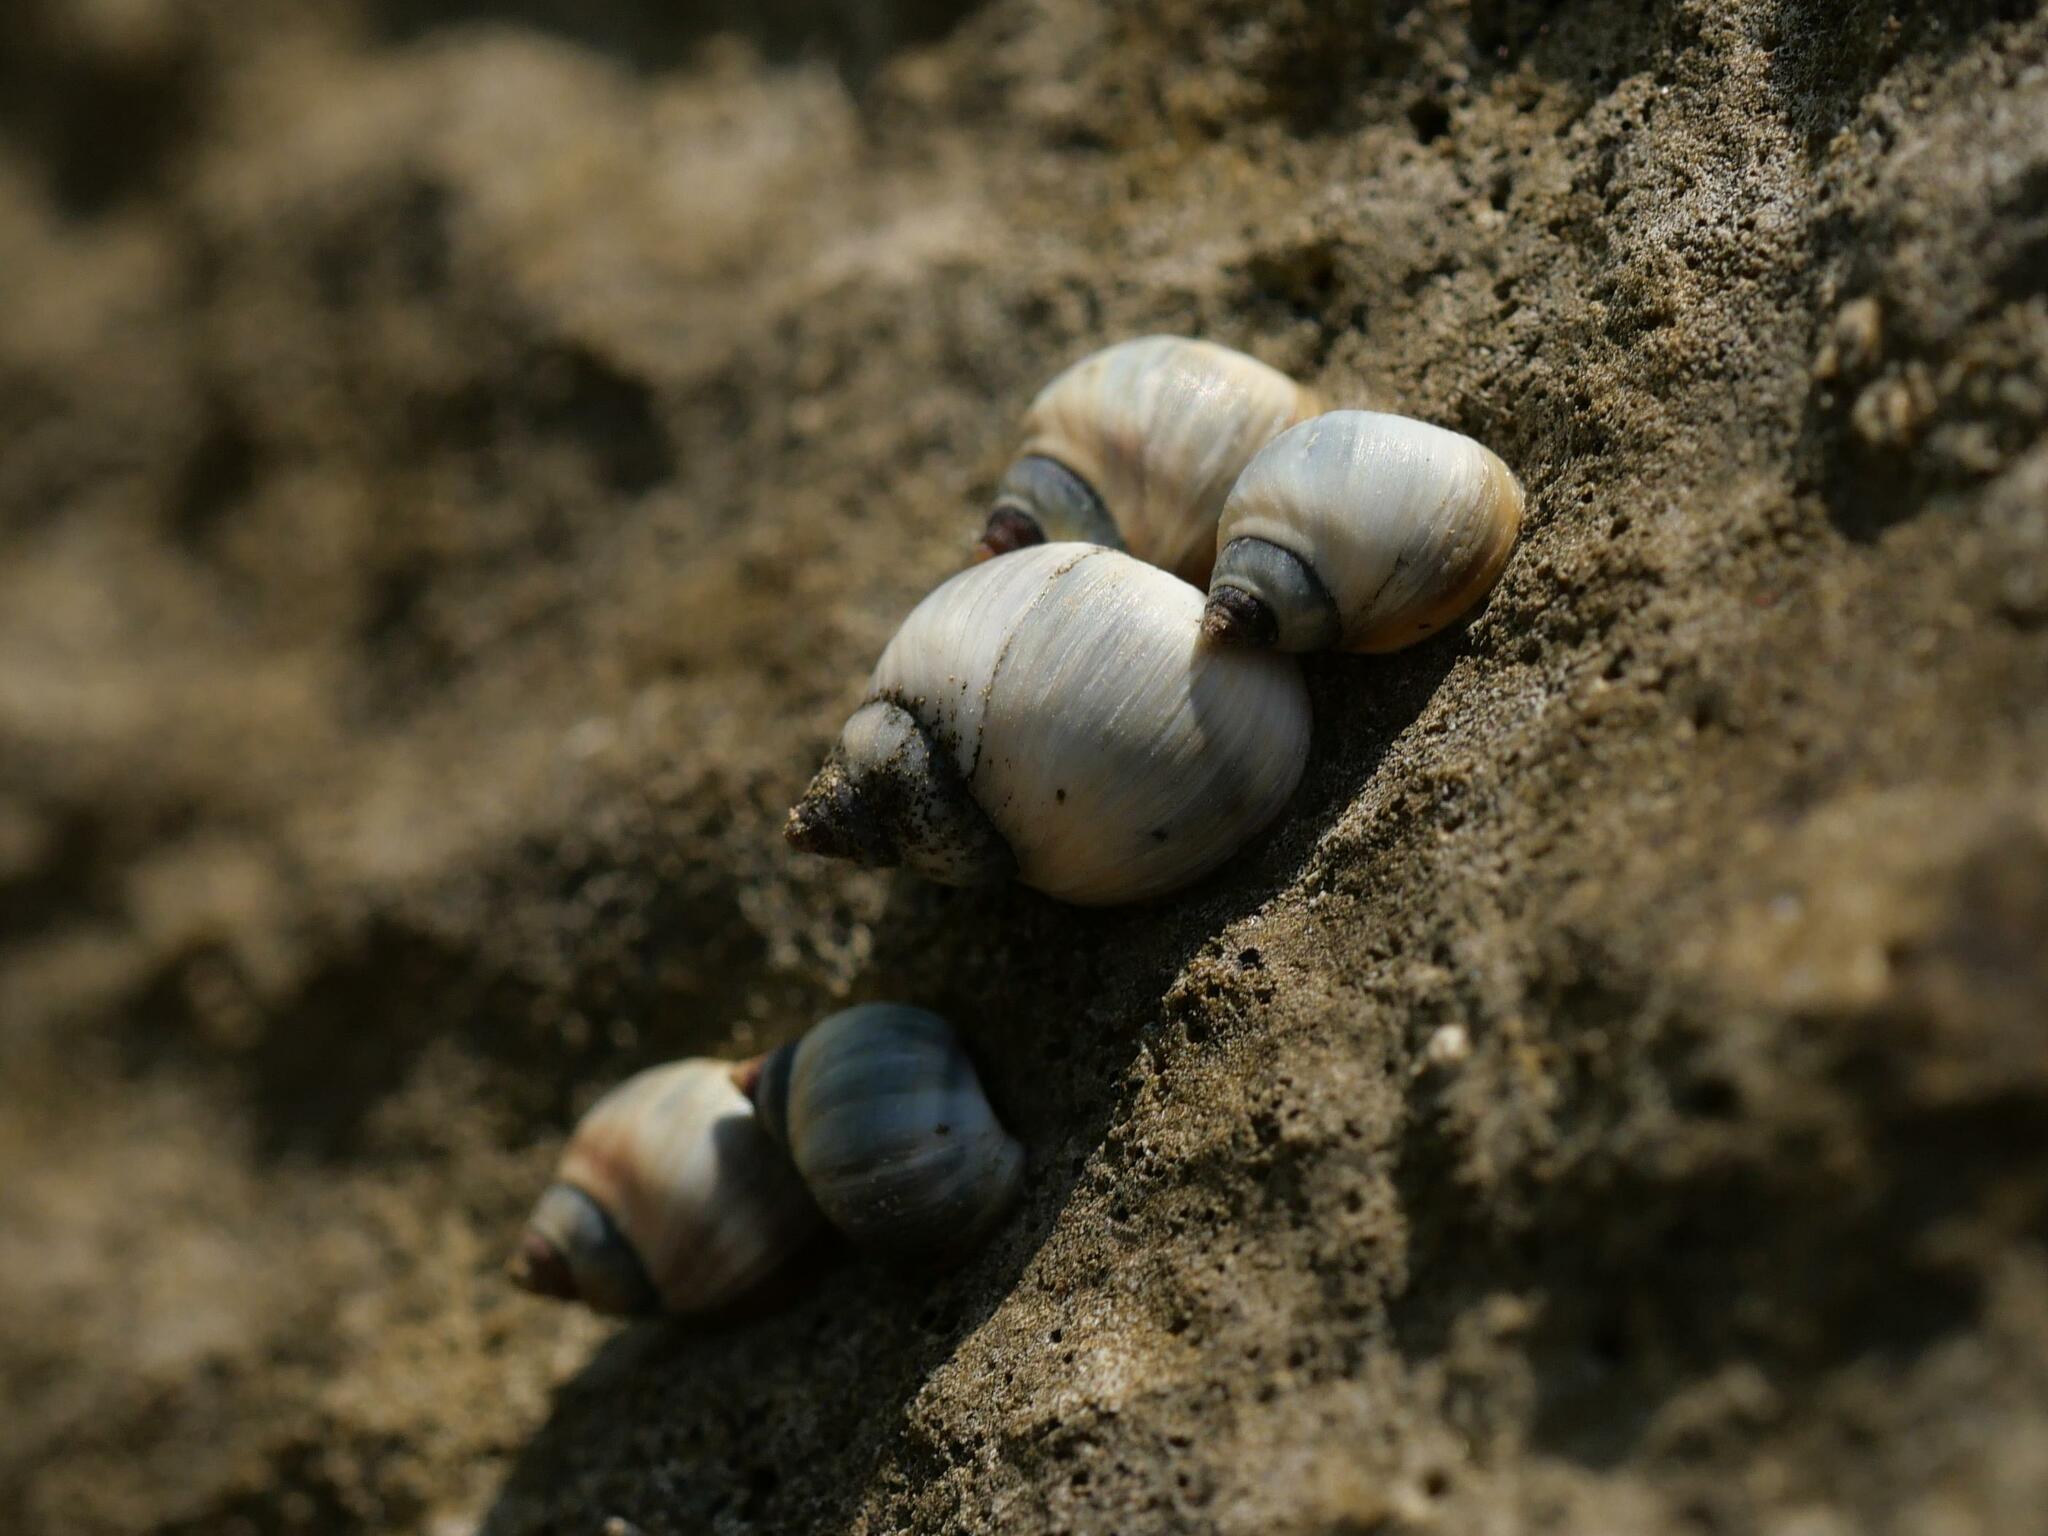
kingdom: Animalia
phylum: Mollusca
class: Gastropoda
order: Littorinimorpha
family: Littorinidae
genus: Melarhaphe
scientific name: Melarhaphe neritoides
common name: Small periwinkle
